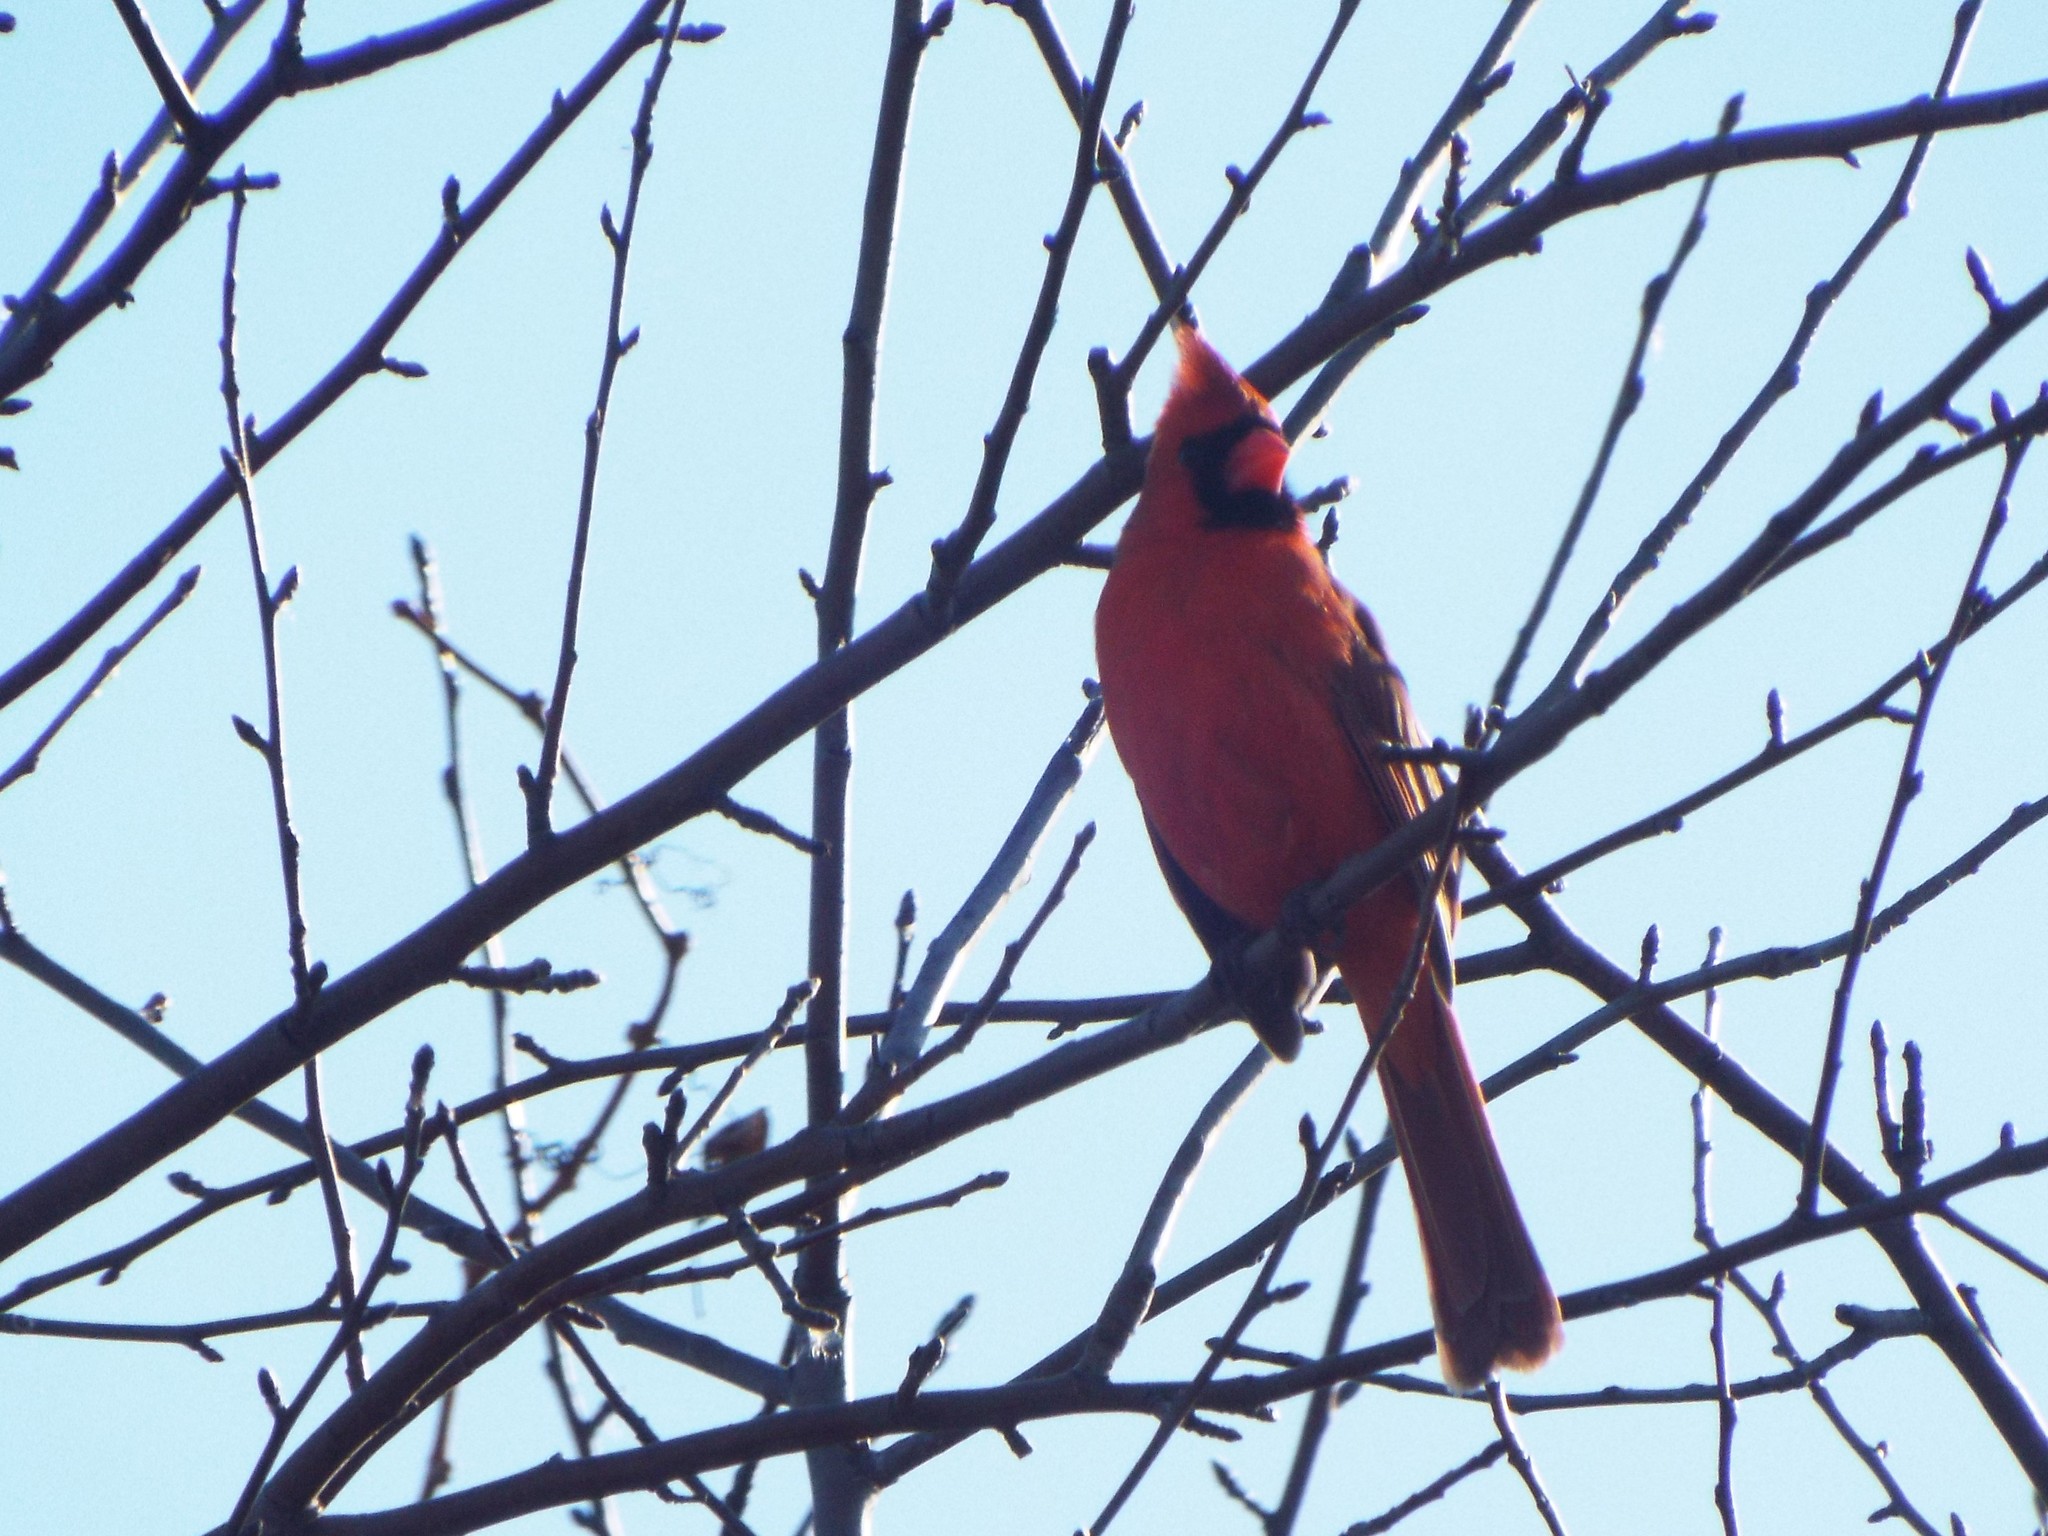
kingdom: Animalia
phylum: Chordata
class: Aves
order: Passeriformes
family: Cardinalidae
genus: Cardinalis
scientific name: Cardinalis cardinalis
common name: Northern cardinal
